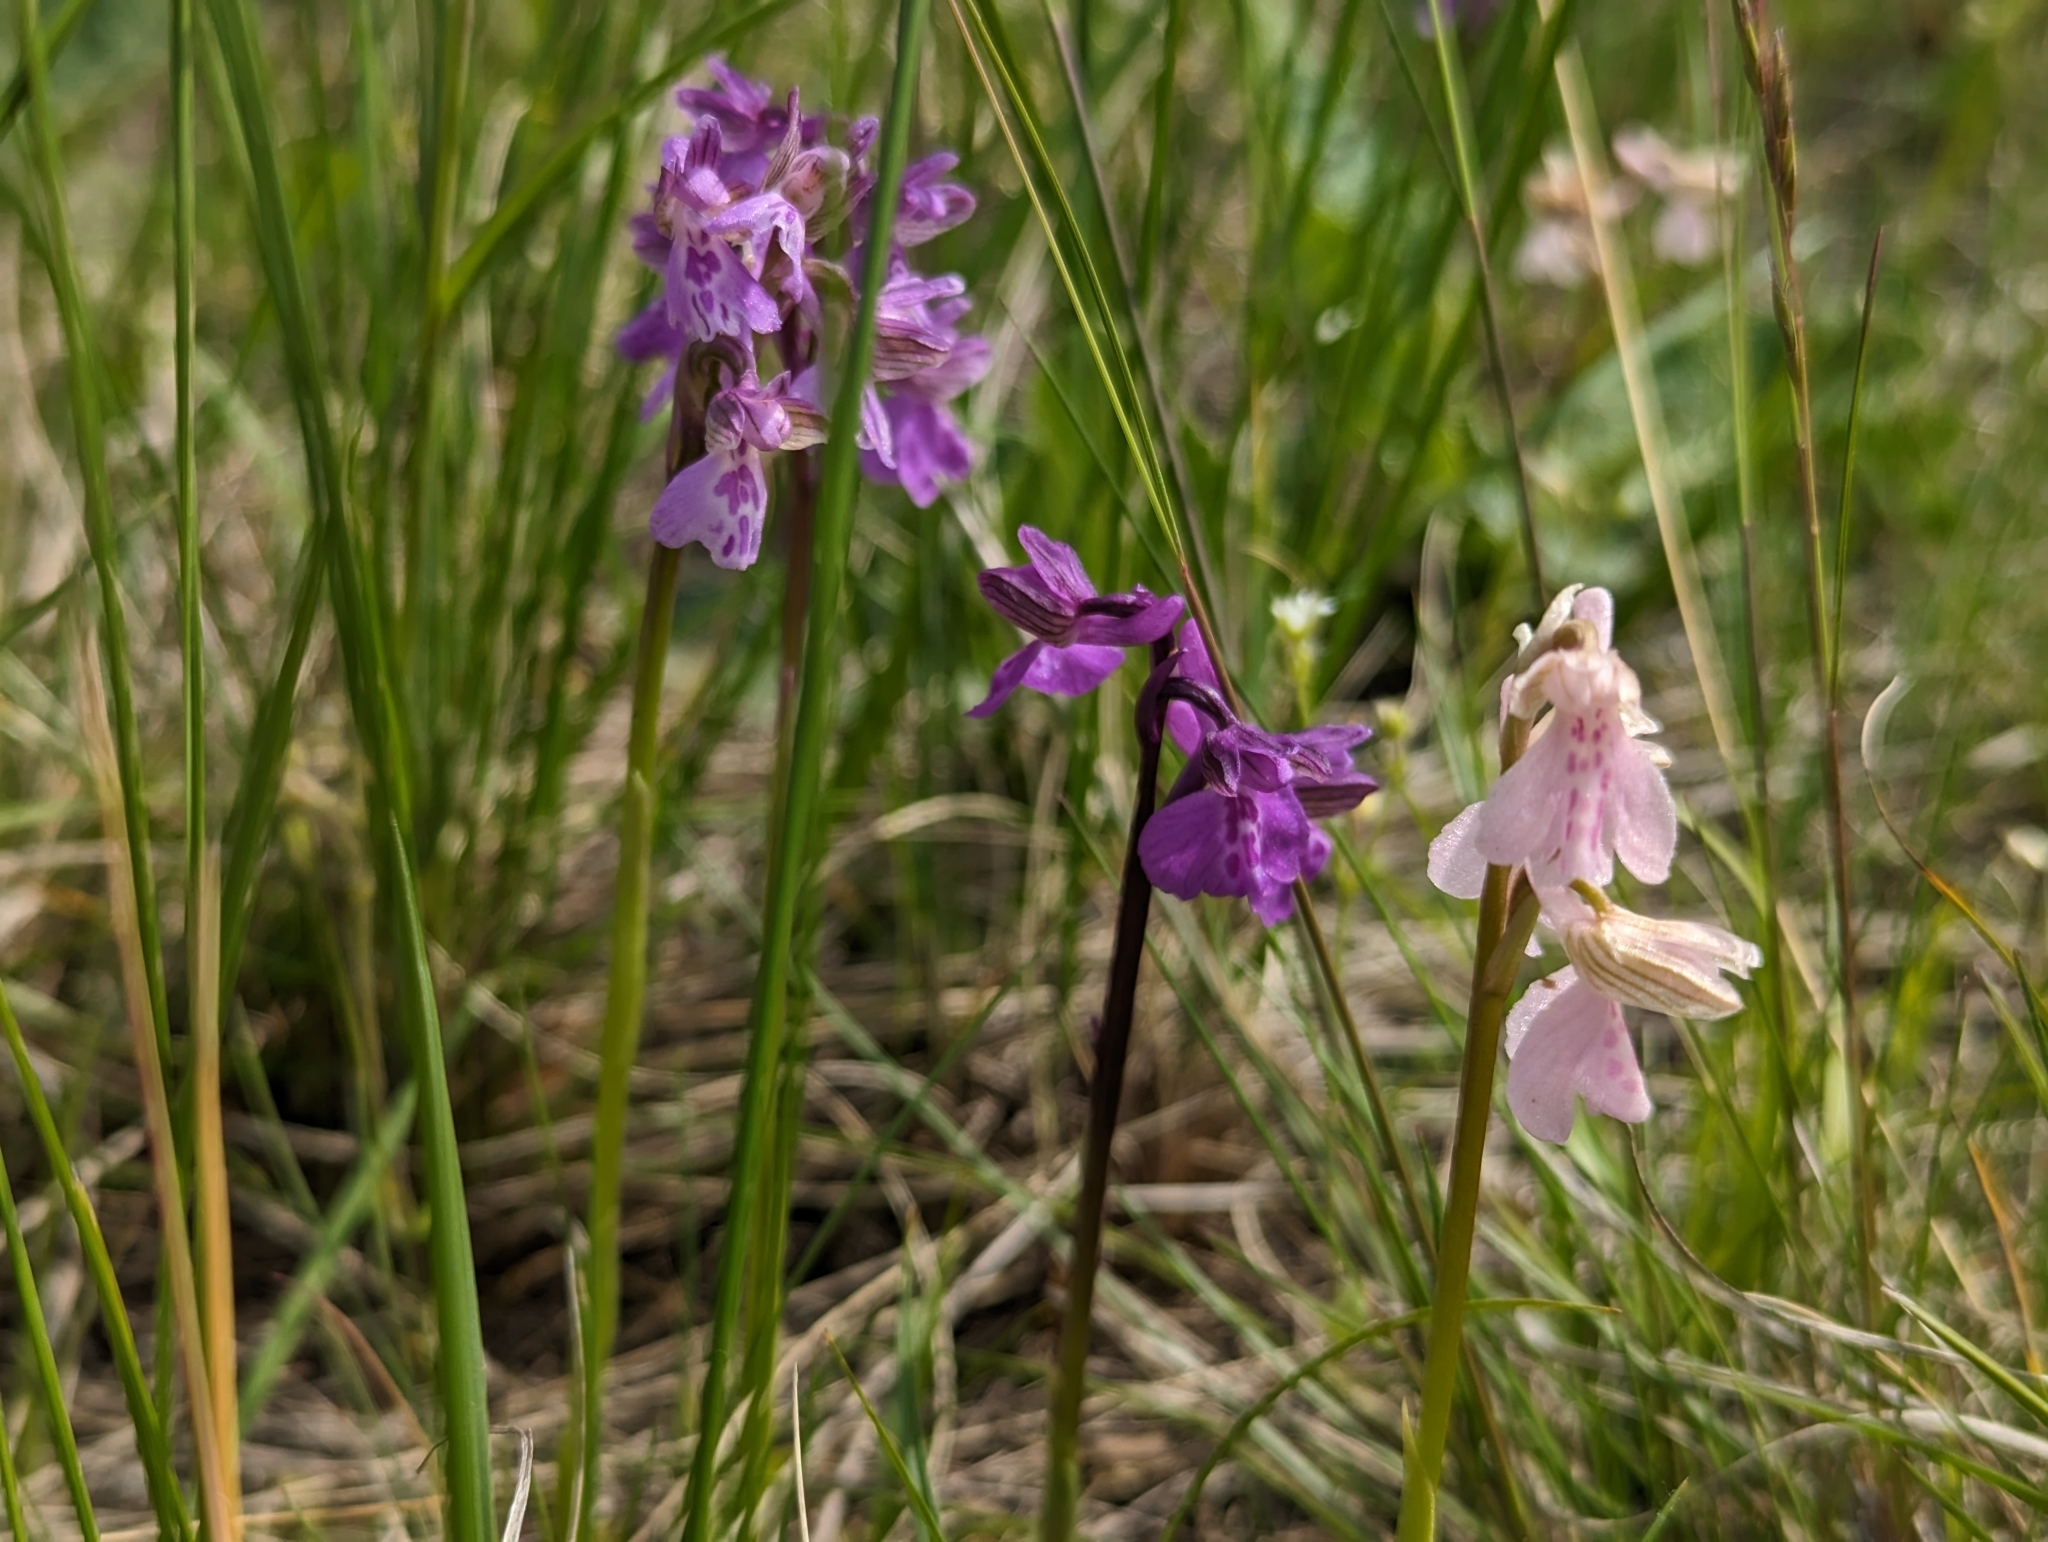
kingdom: Plantae
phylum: Tracheophyta
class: Liliopsida
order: Asparagales
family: Orchidaceae
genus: Anacamptis
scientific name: Anacamptis morio
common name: Green-winged orchid
